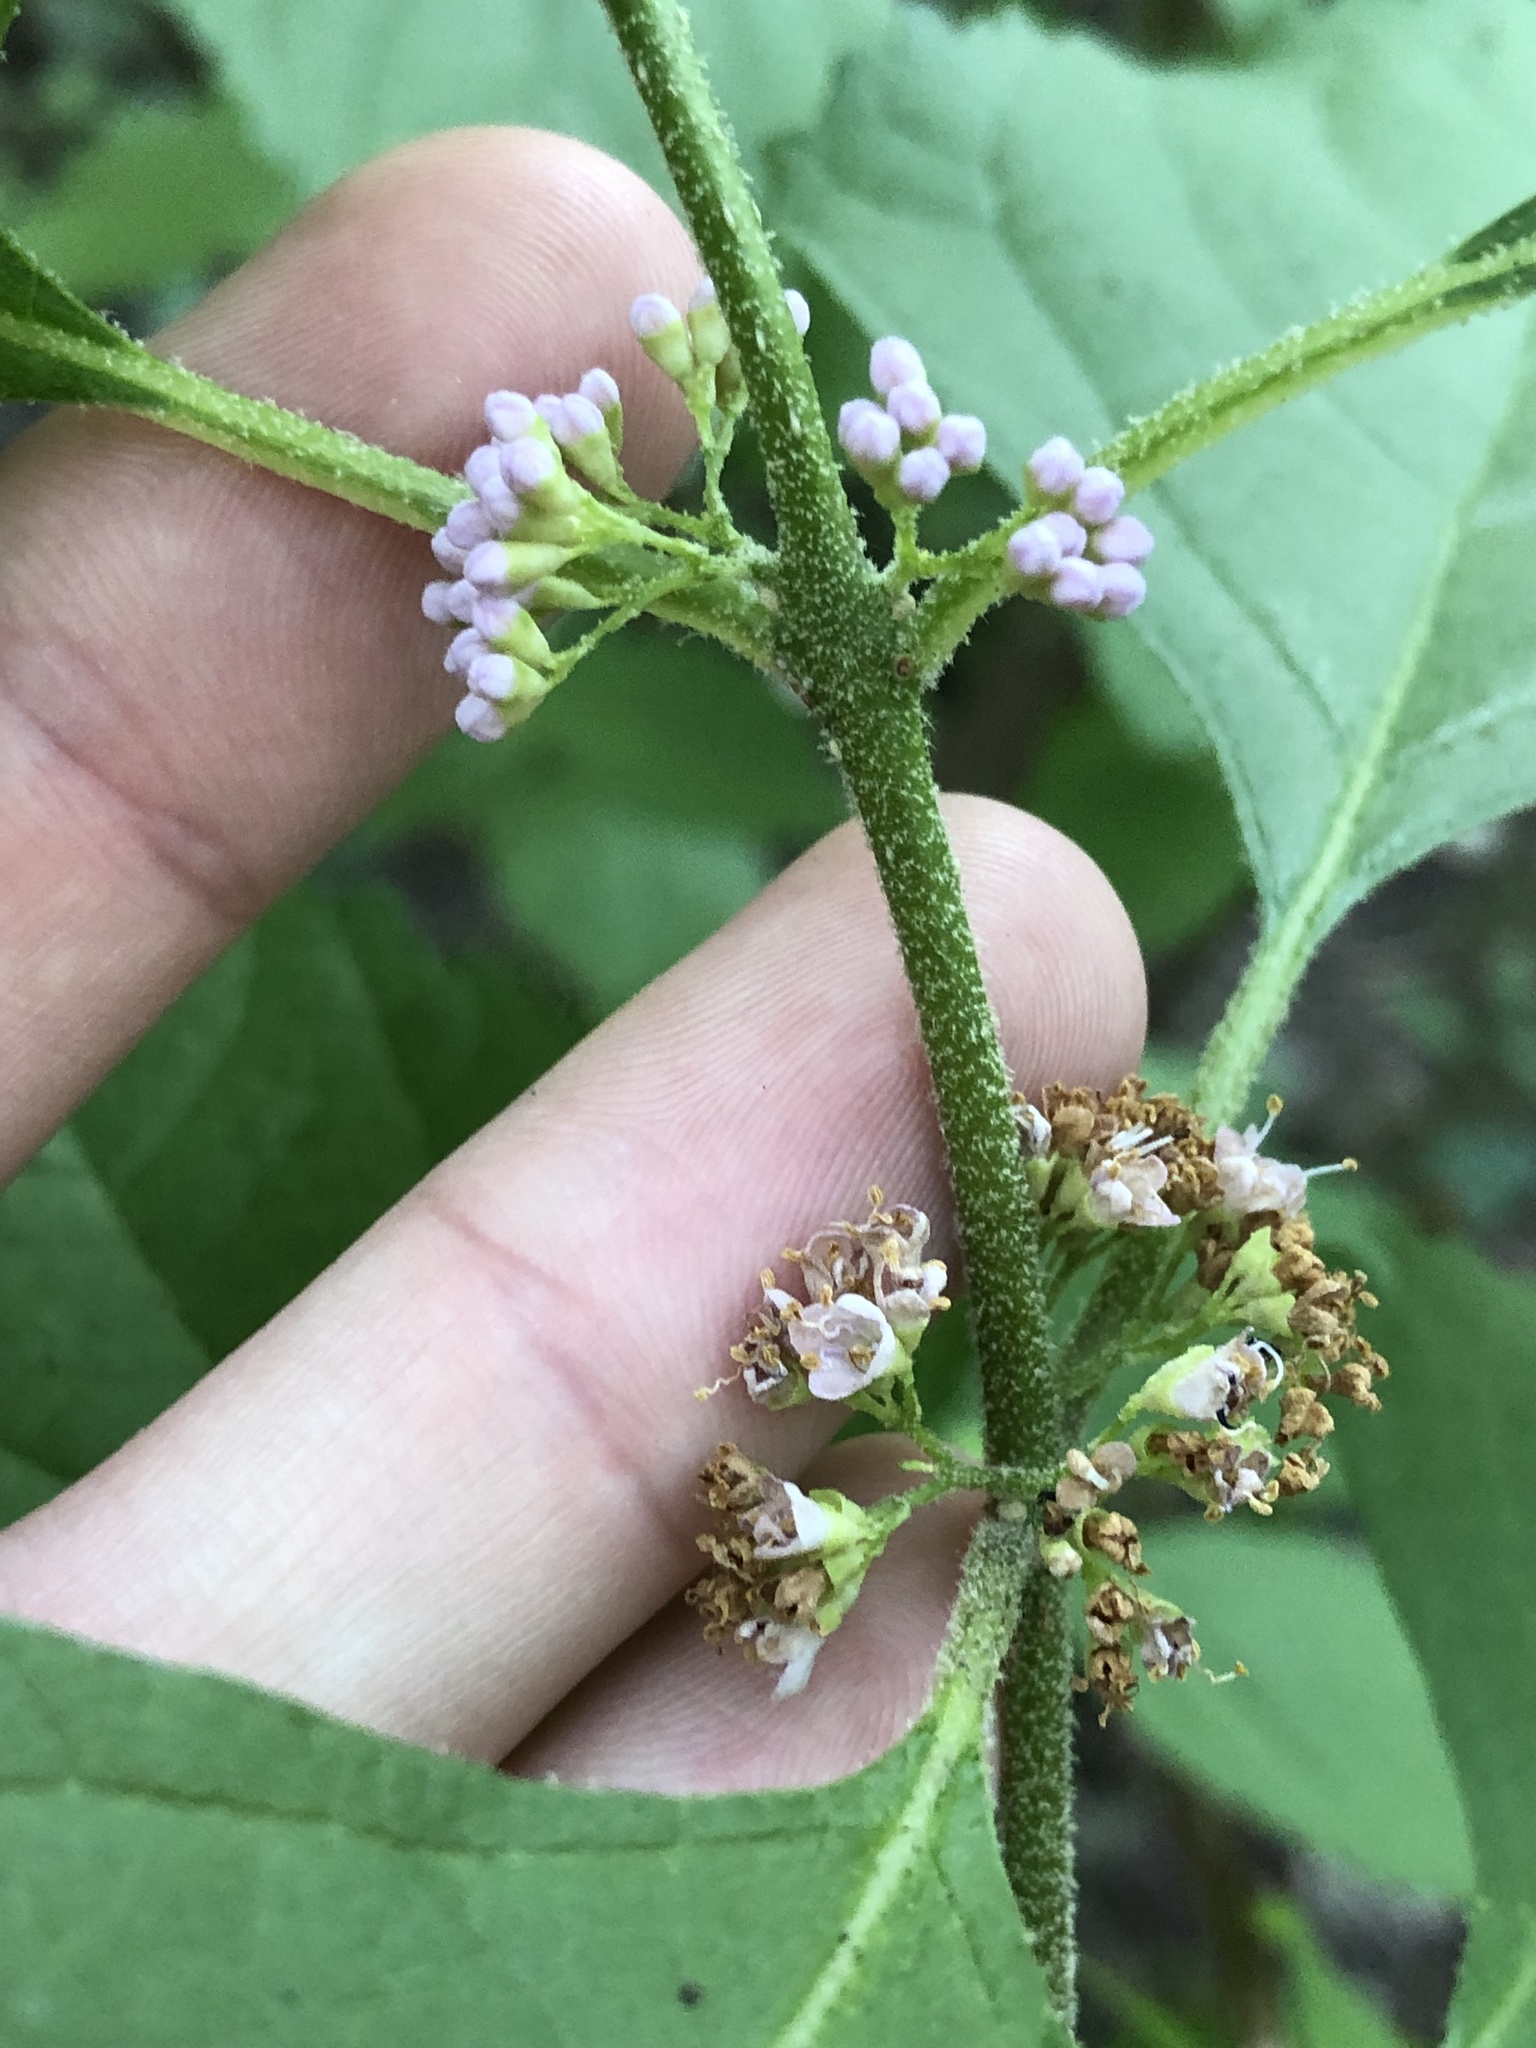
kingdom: Plantae
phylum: Tracheophyta
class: Magnoliopsida
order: Lamiales
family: Lamiaceae
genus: Callicarpa
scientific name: Callicarpa americana
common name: American beautyberry
